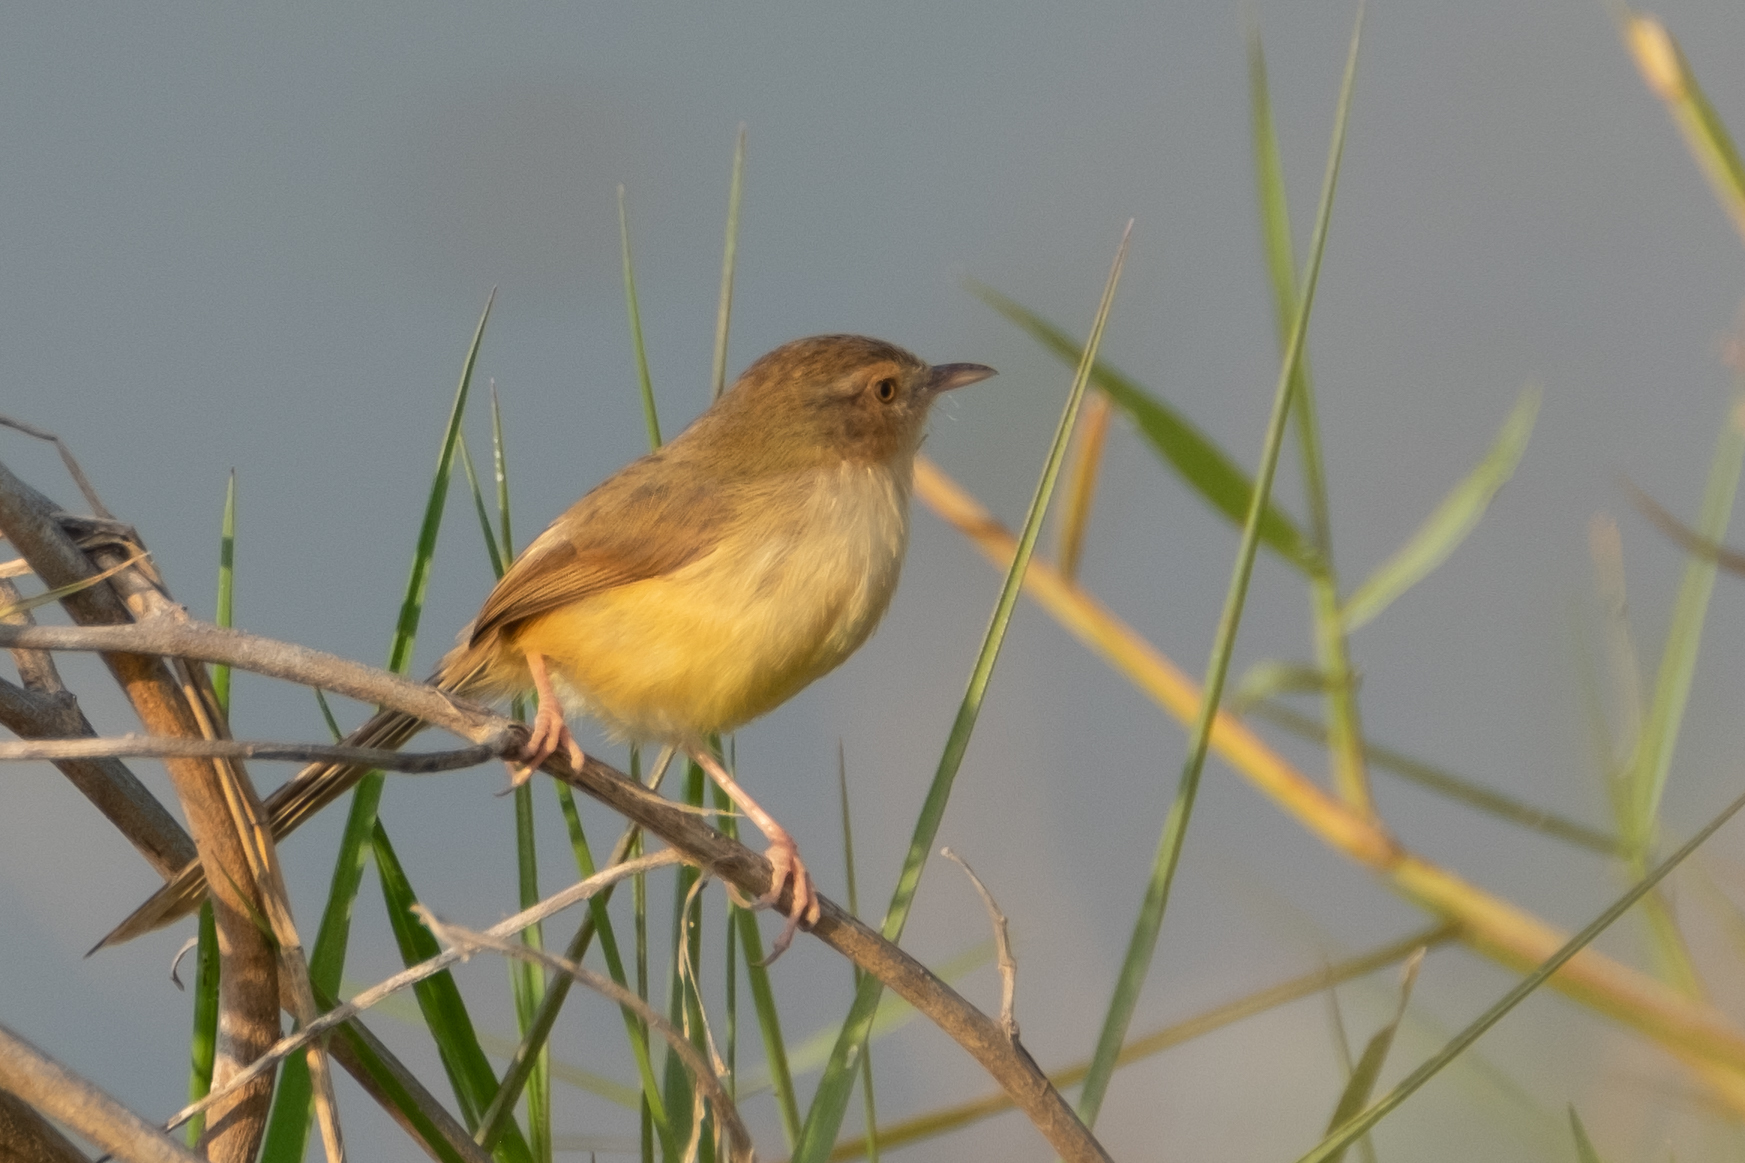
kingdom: Animalia
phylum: Chordata
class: Aves
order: Passeriformes
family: Cisticolidae
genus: Prinia
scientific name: Prinia inornata
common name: Plain prinia
